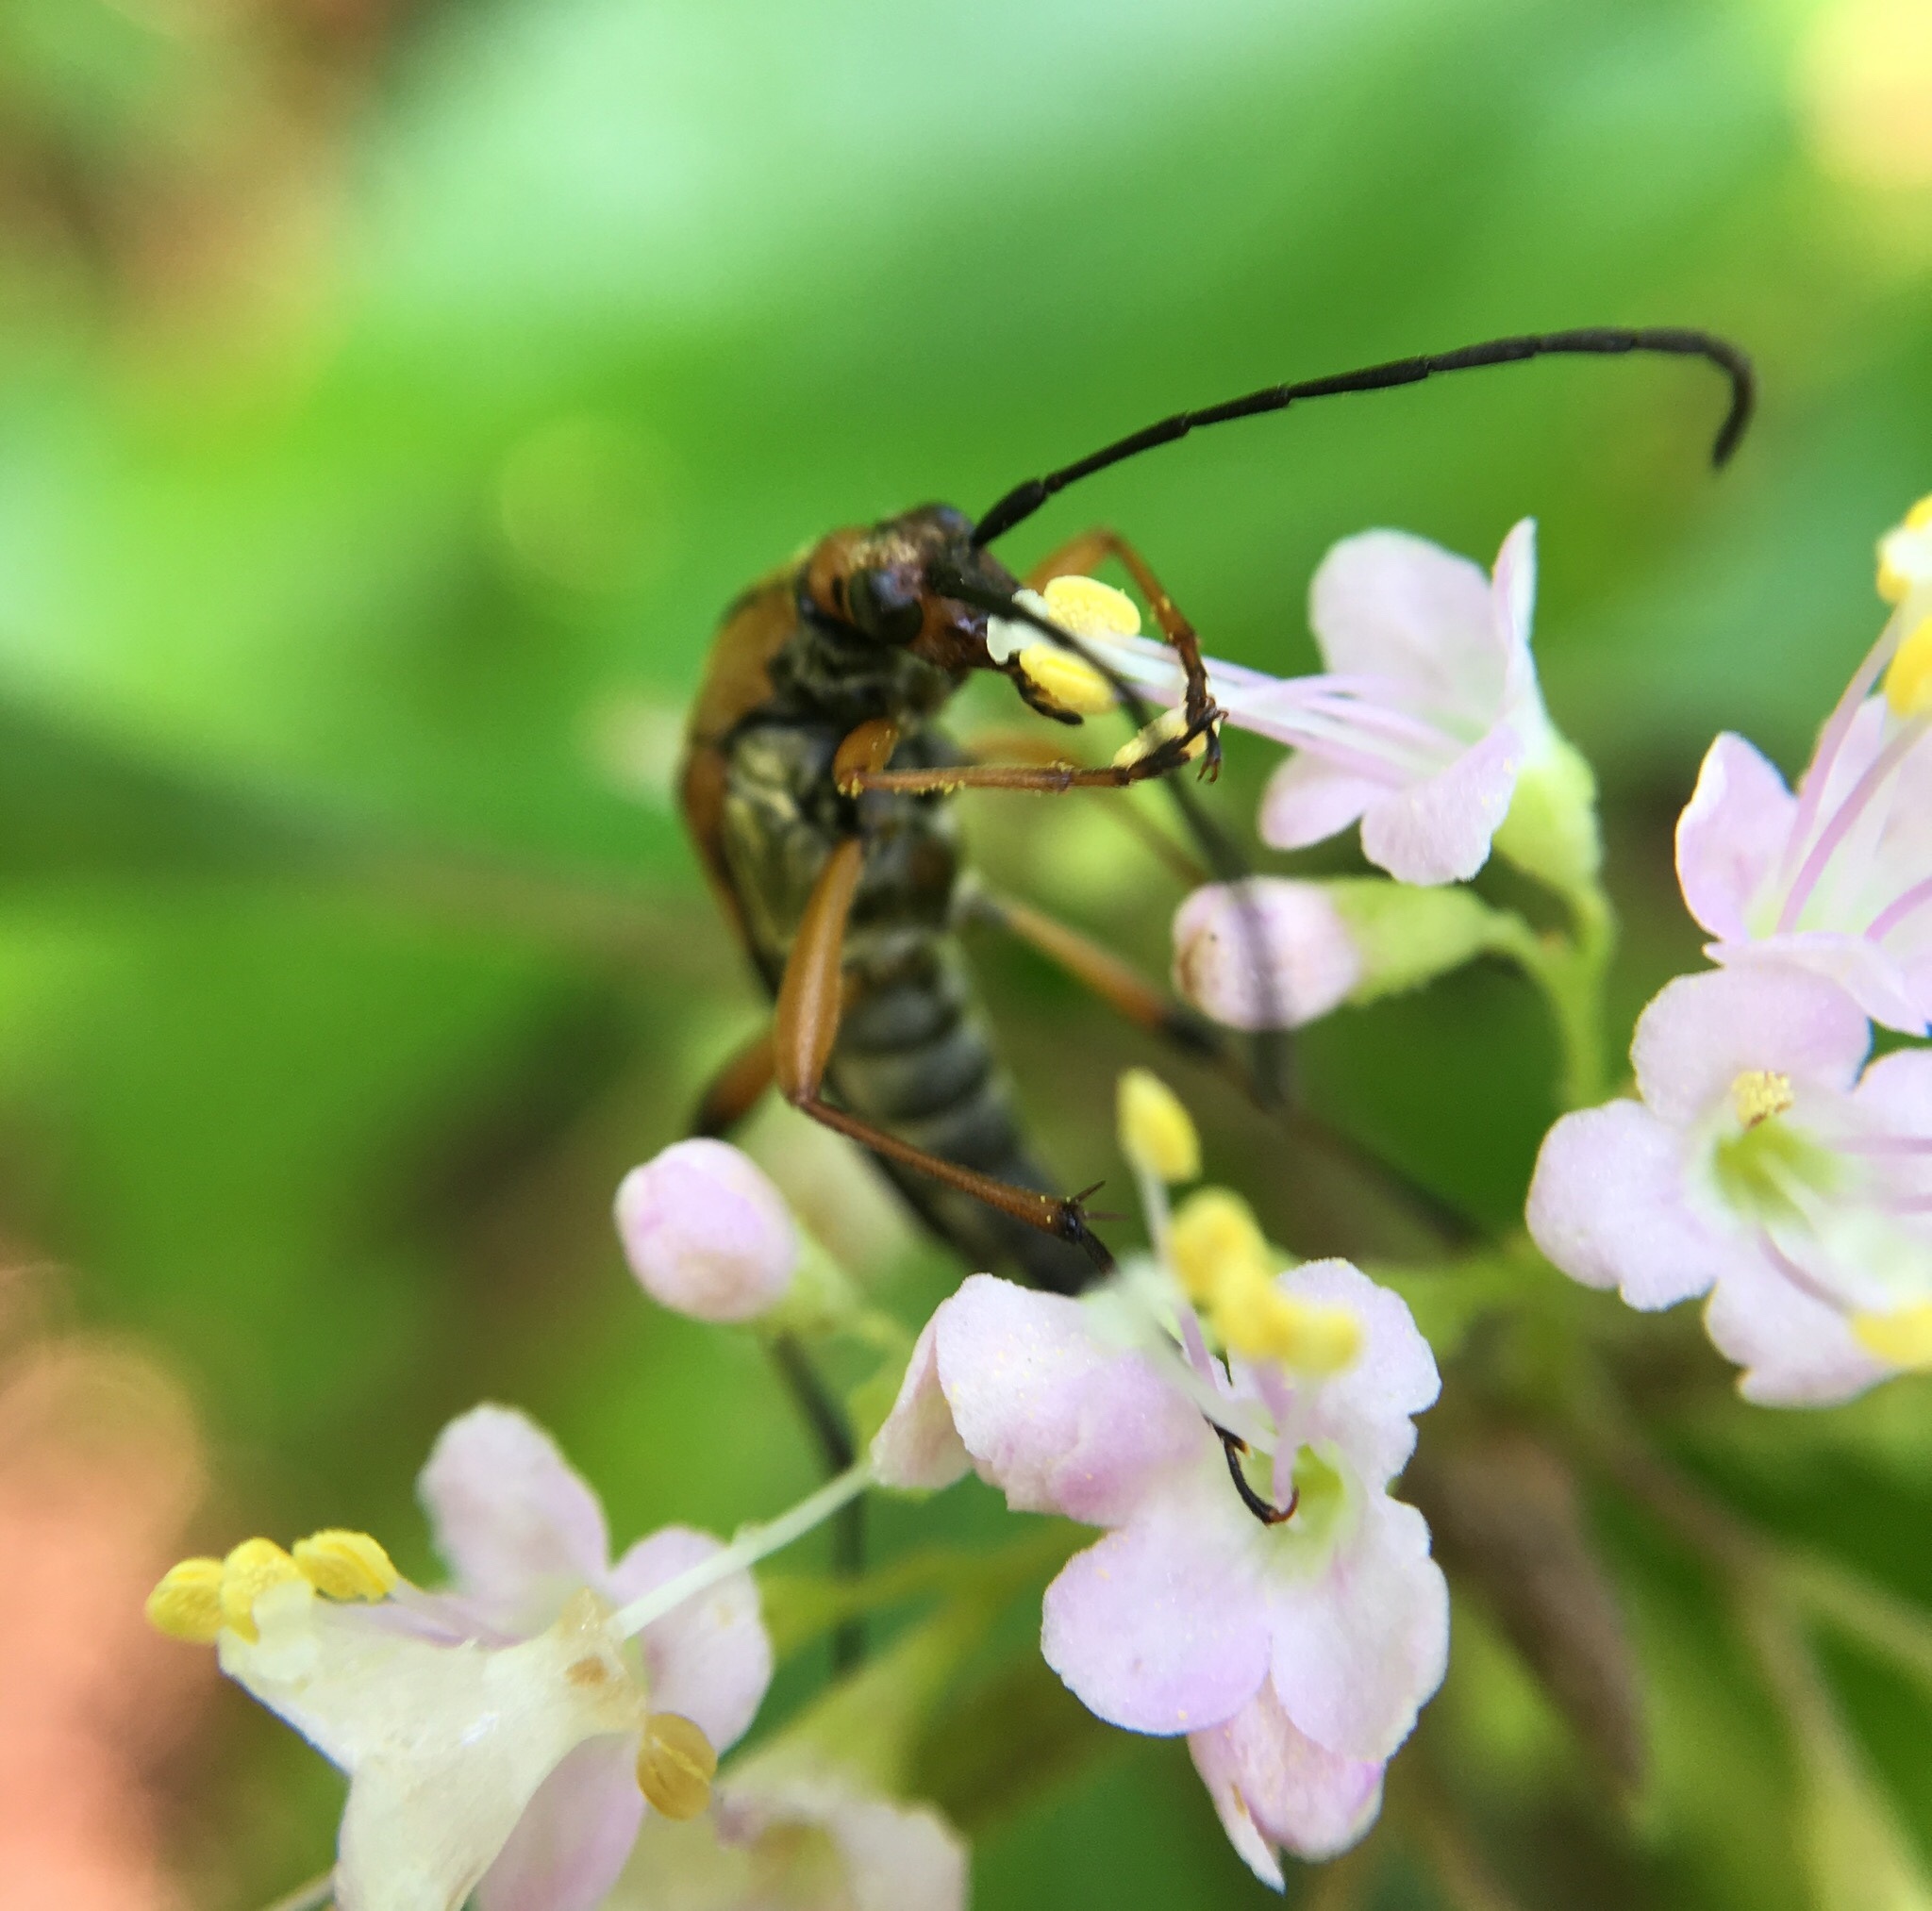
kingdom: Animalia
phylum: Arthropoda
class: Insecta
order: Coleoptera
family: Cerambycidae
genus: Strangalia
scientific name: Strangalia famelica
